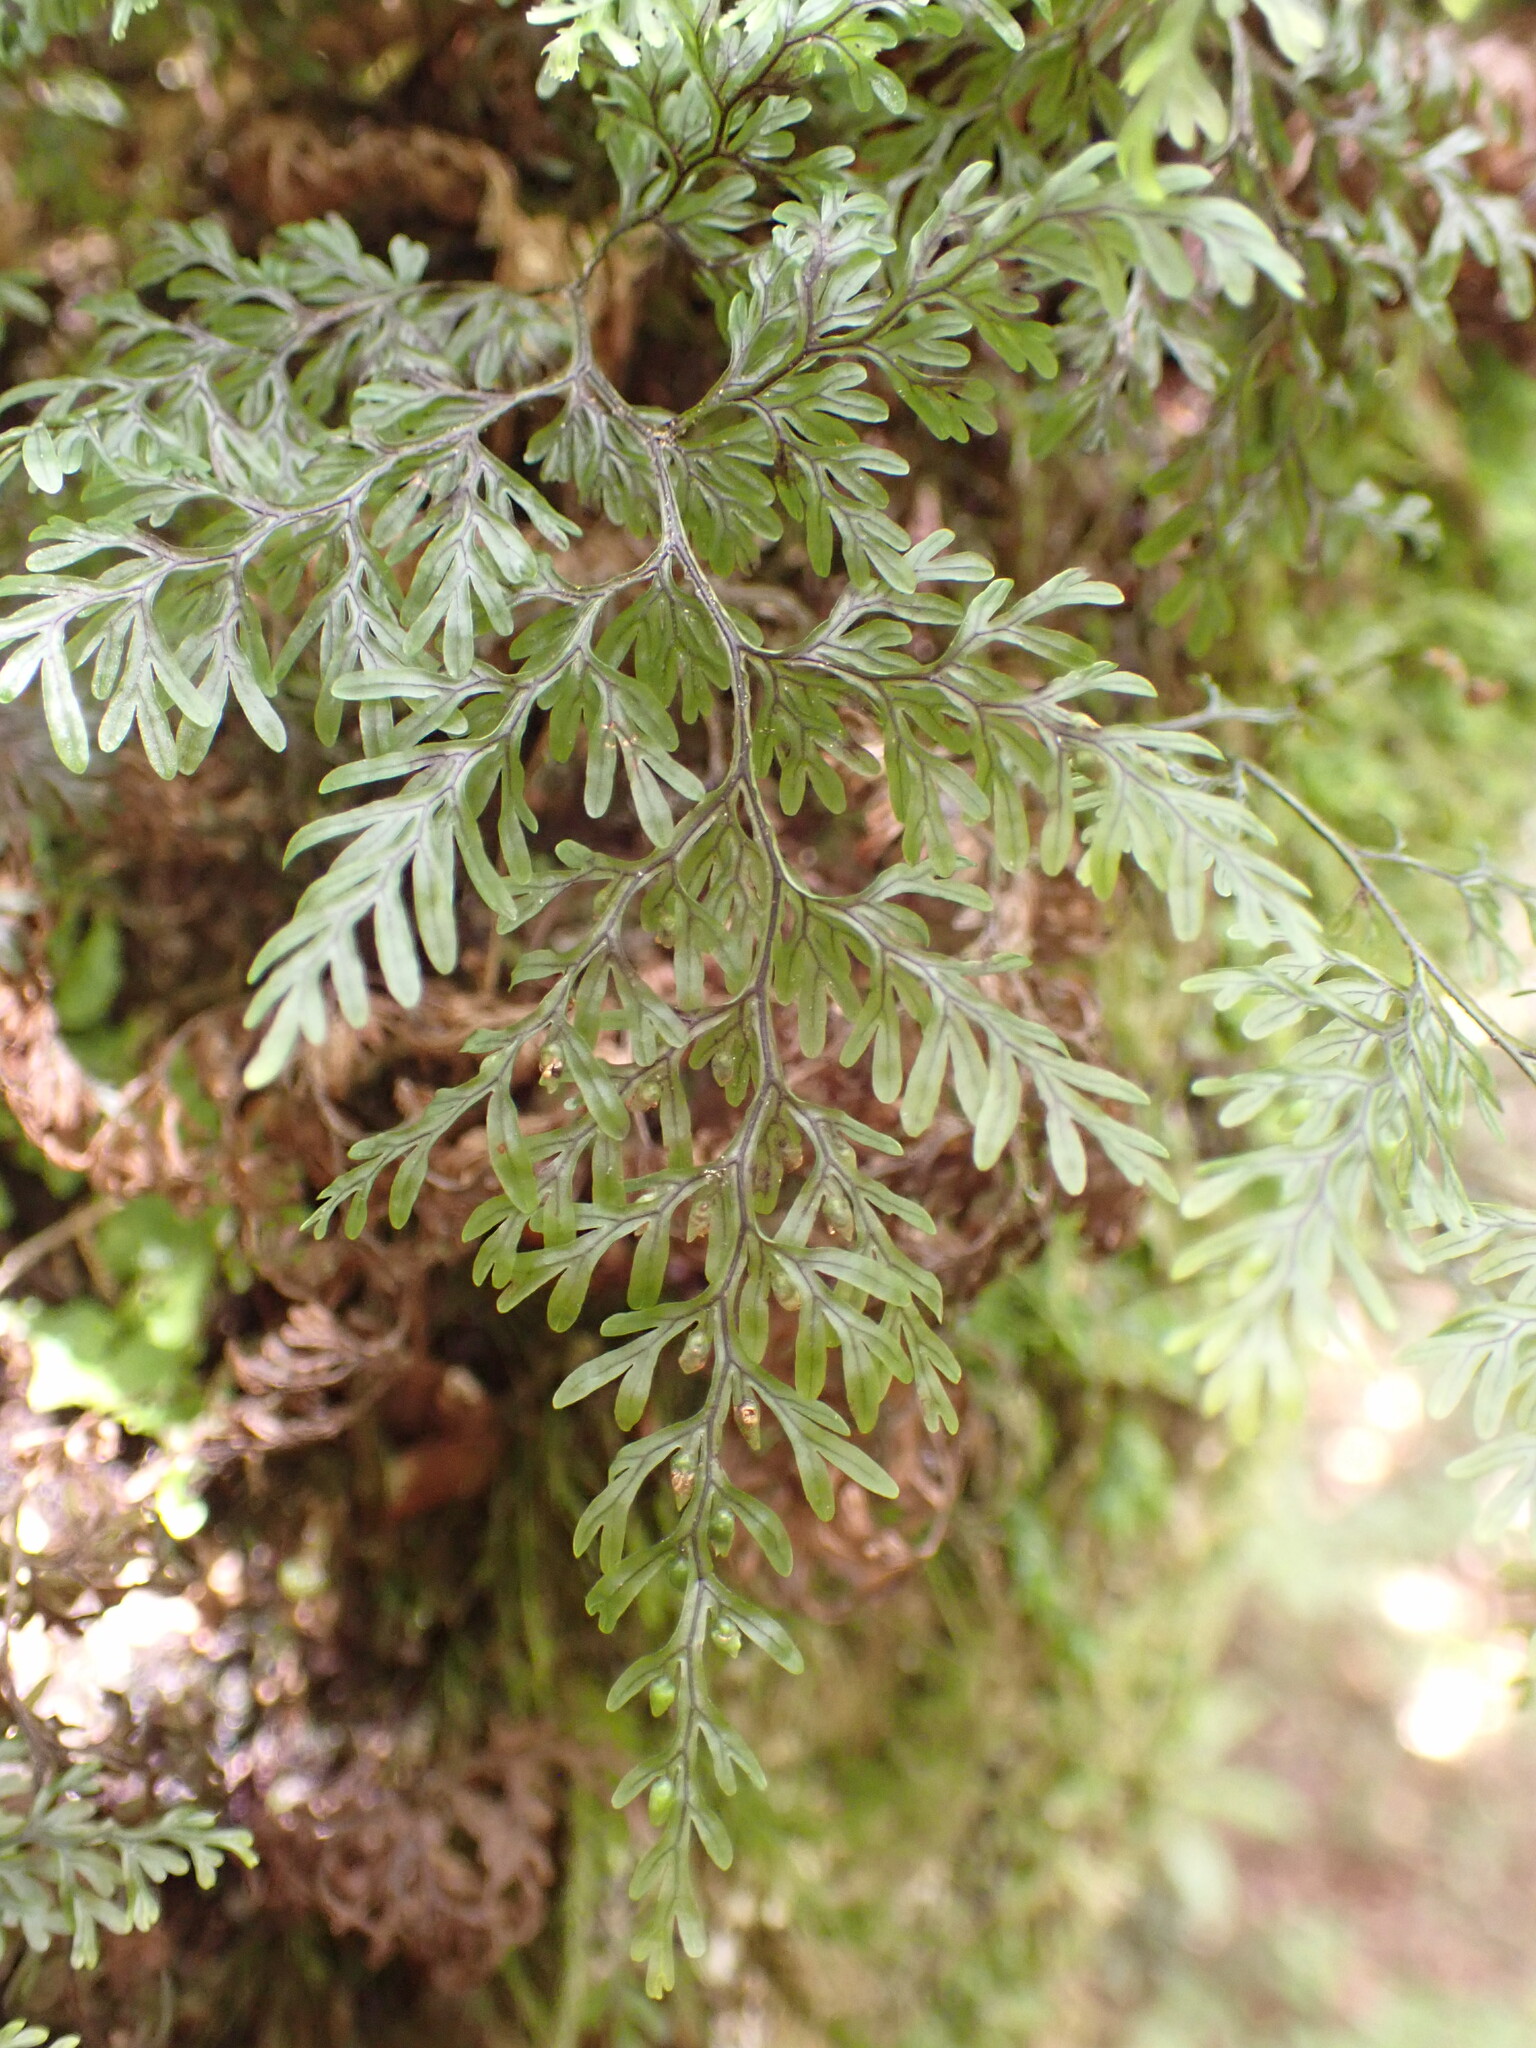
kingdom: Plantae
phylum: Tracheophyta
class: Polypodiopsida
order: Hymenophyllales
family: Hymenophyllaceae
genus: Hymenophyllum
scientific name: Hymenophyllum villosum
